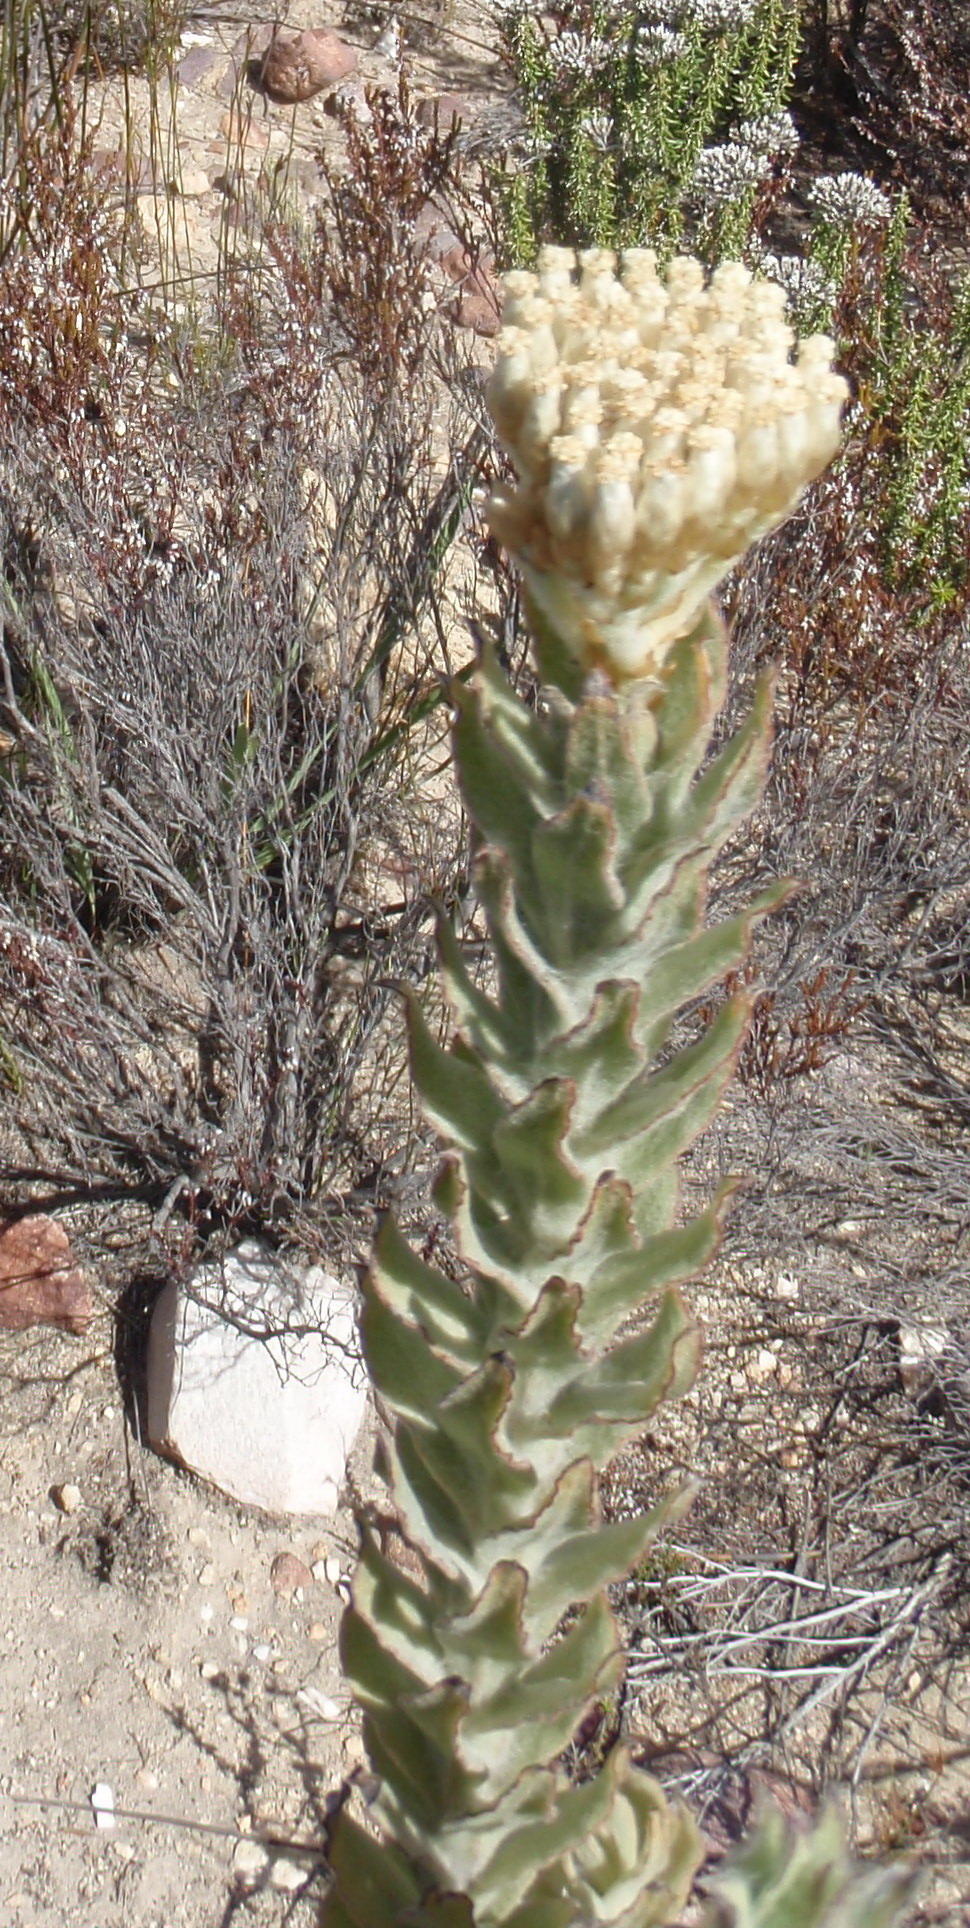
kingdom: Plantae
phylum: Tracheophyta
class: Magnoliopsida
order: Asterales
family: Asteraceae
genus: Syncarpha
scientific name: Syncarpha milleflora
